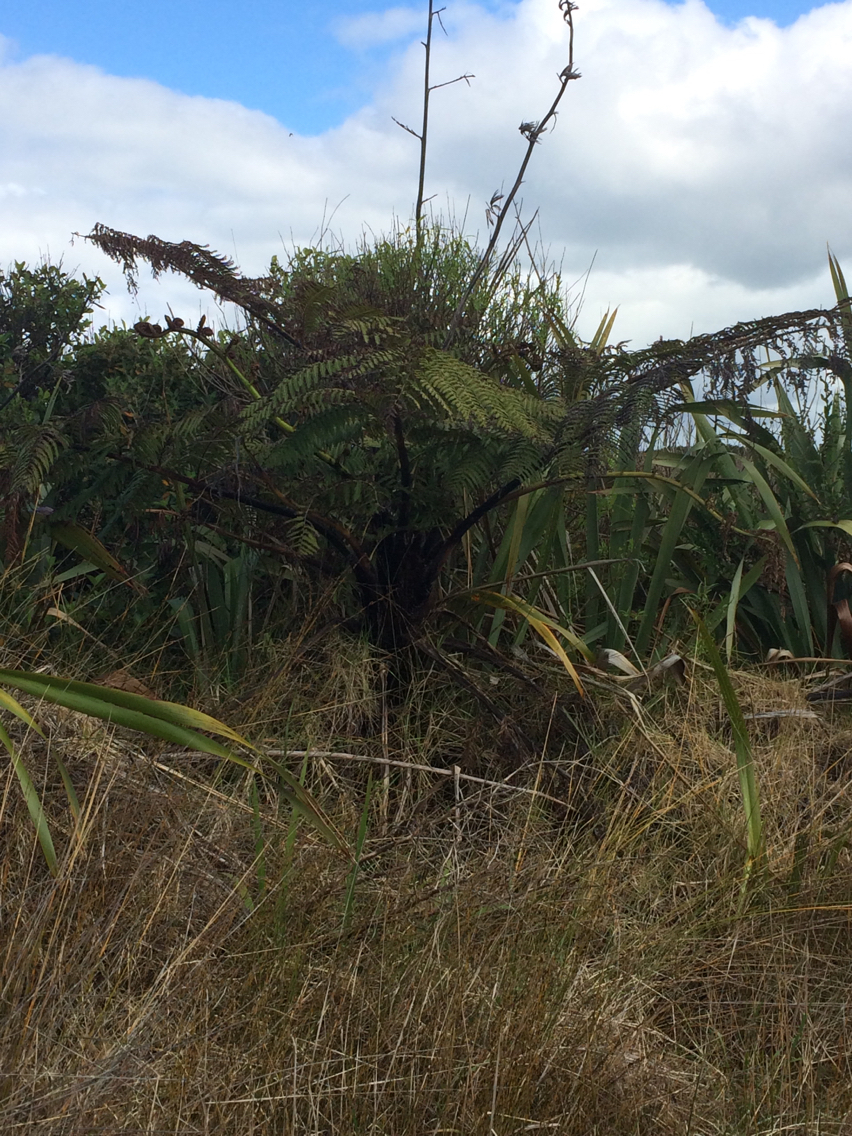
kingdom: Plantae
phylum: Tracheophyta
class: Polypodiopsida
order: Cyatheales
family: Cyatheaceae
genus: Sphaeropteris
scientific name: Sphaeropteris medullaris
